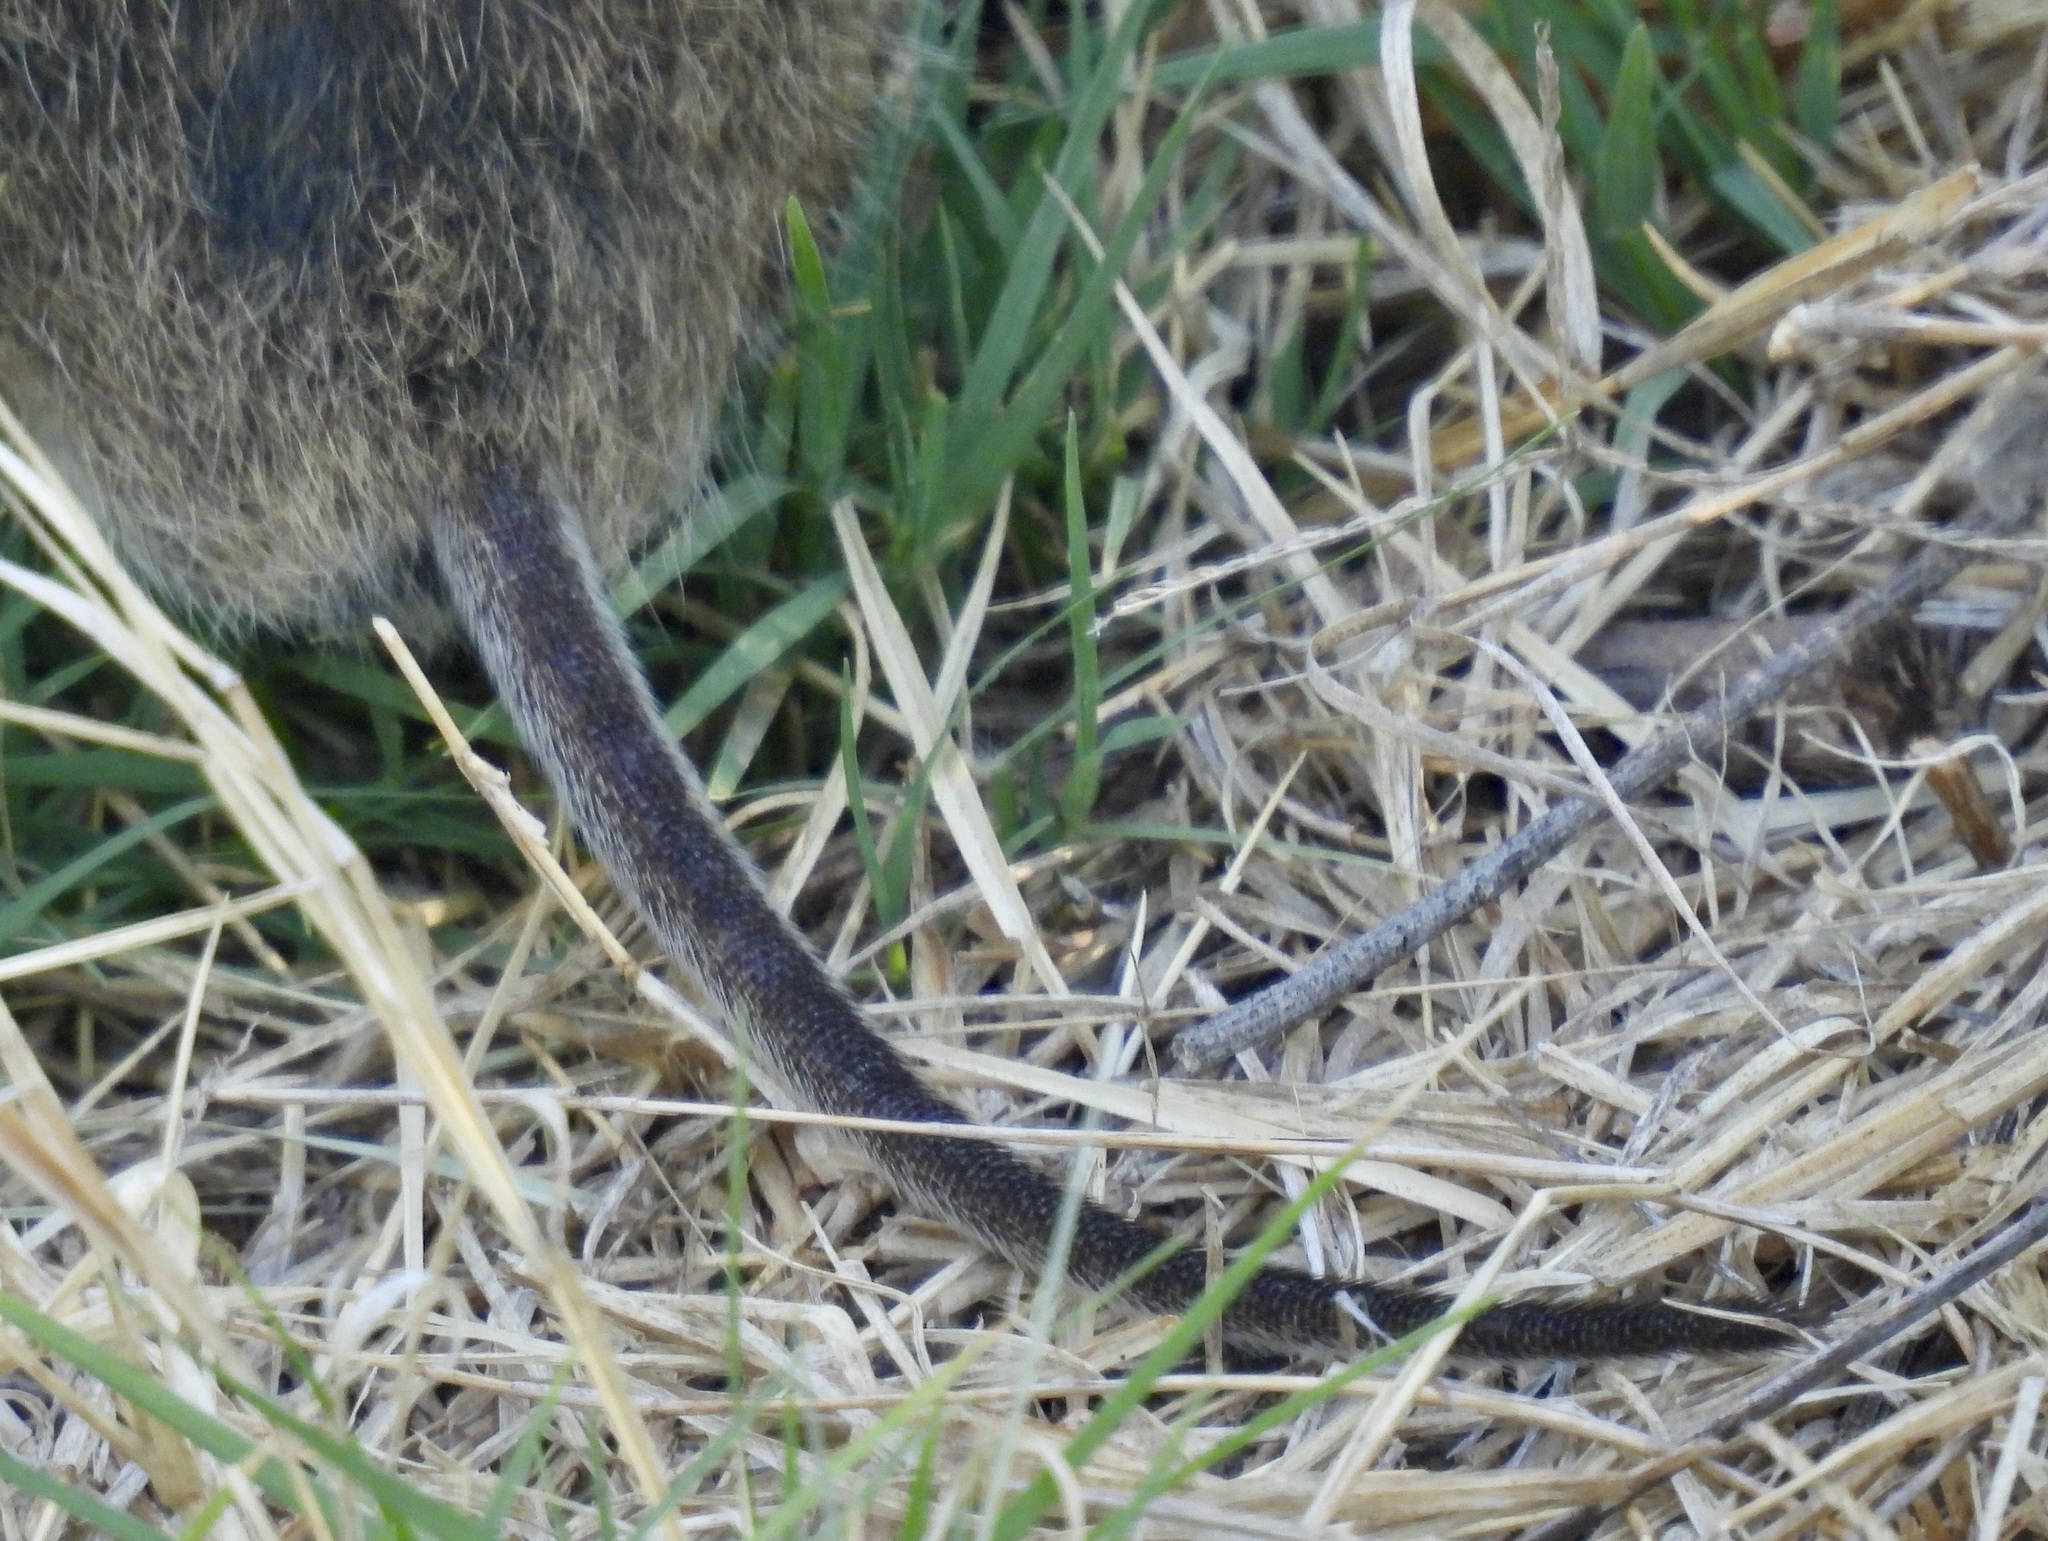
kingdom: Animalia
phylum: Chordata
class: Mammalia
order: Rodentia
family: Cricetidae
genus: Sigmodon
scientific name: Sigmodon hispidus
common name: Hispid cotton rat
